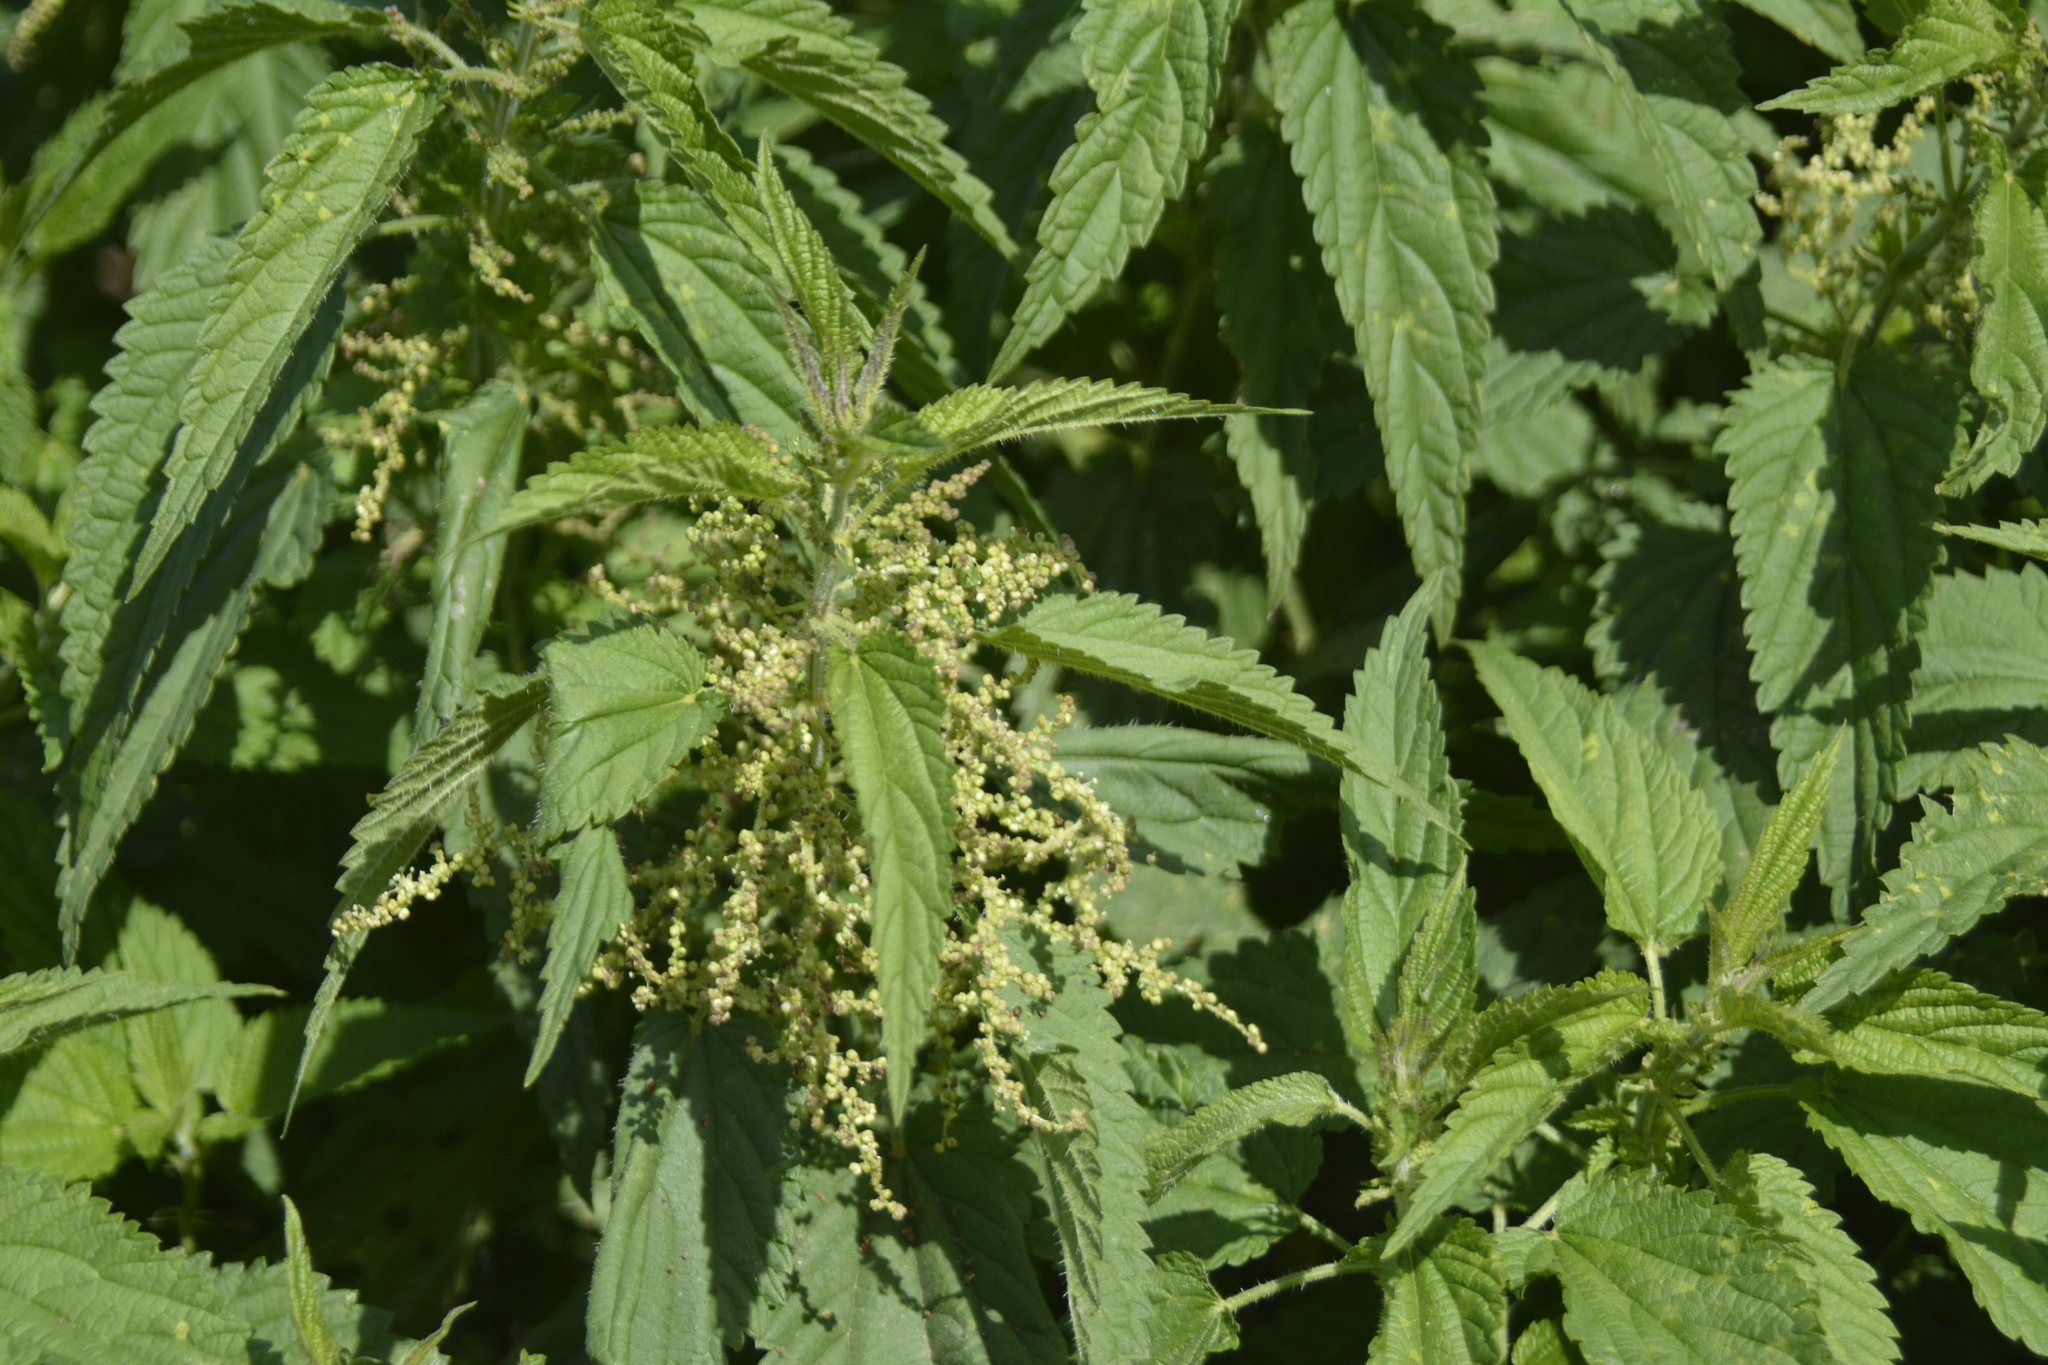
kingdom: Plantae
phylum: Tracheophyta
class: Magnoliopsida
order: Rosales
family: Urticaceae
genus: Urtica
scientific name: Urtica dioica
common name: Common nettle
